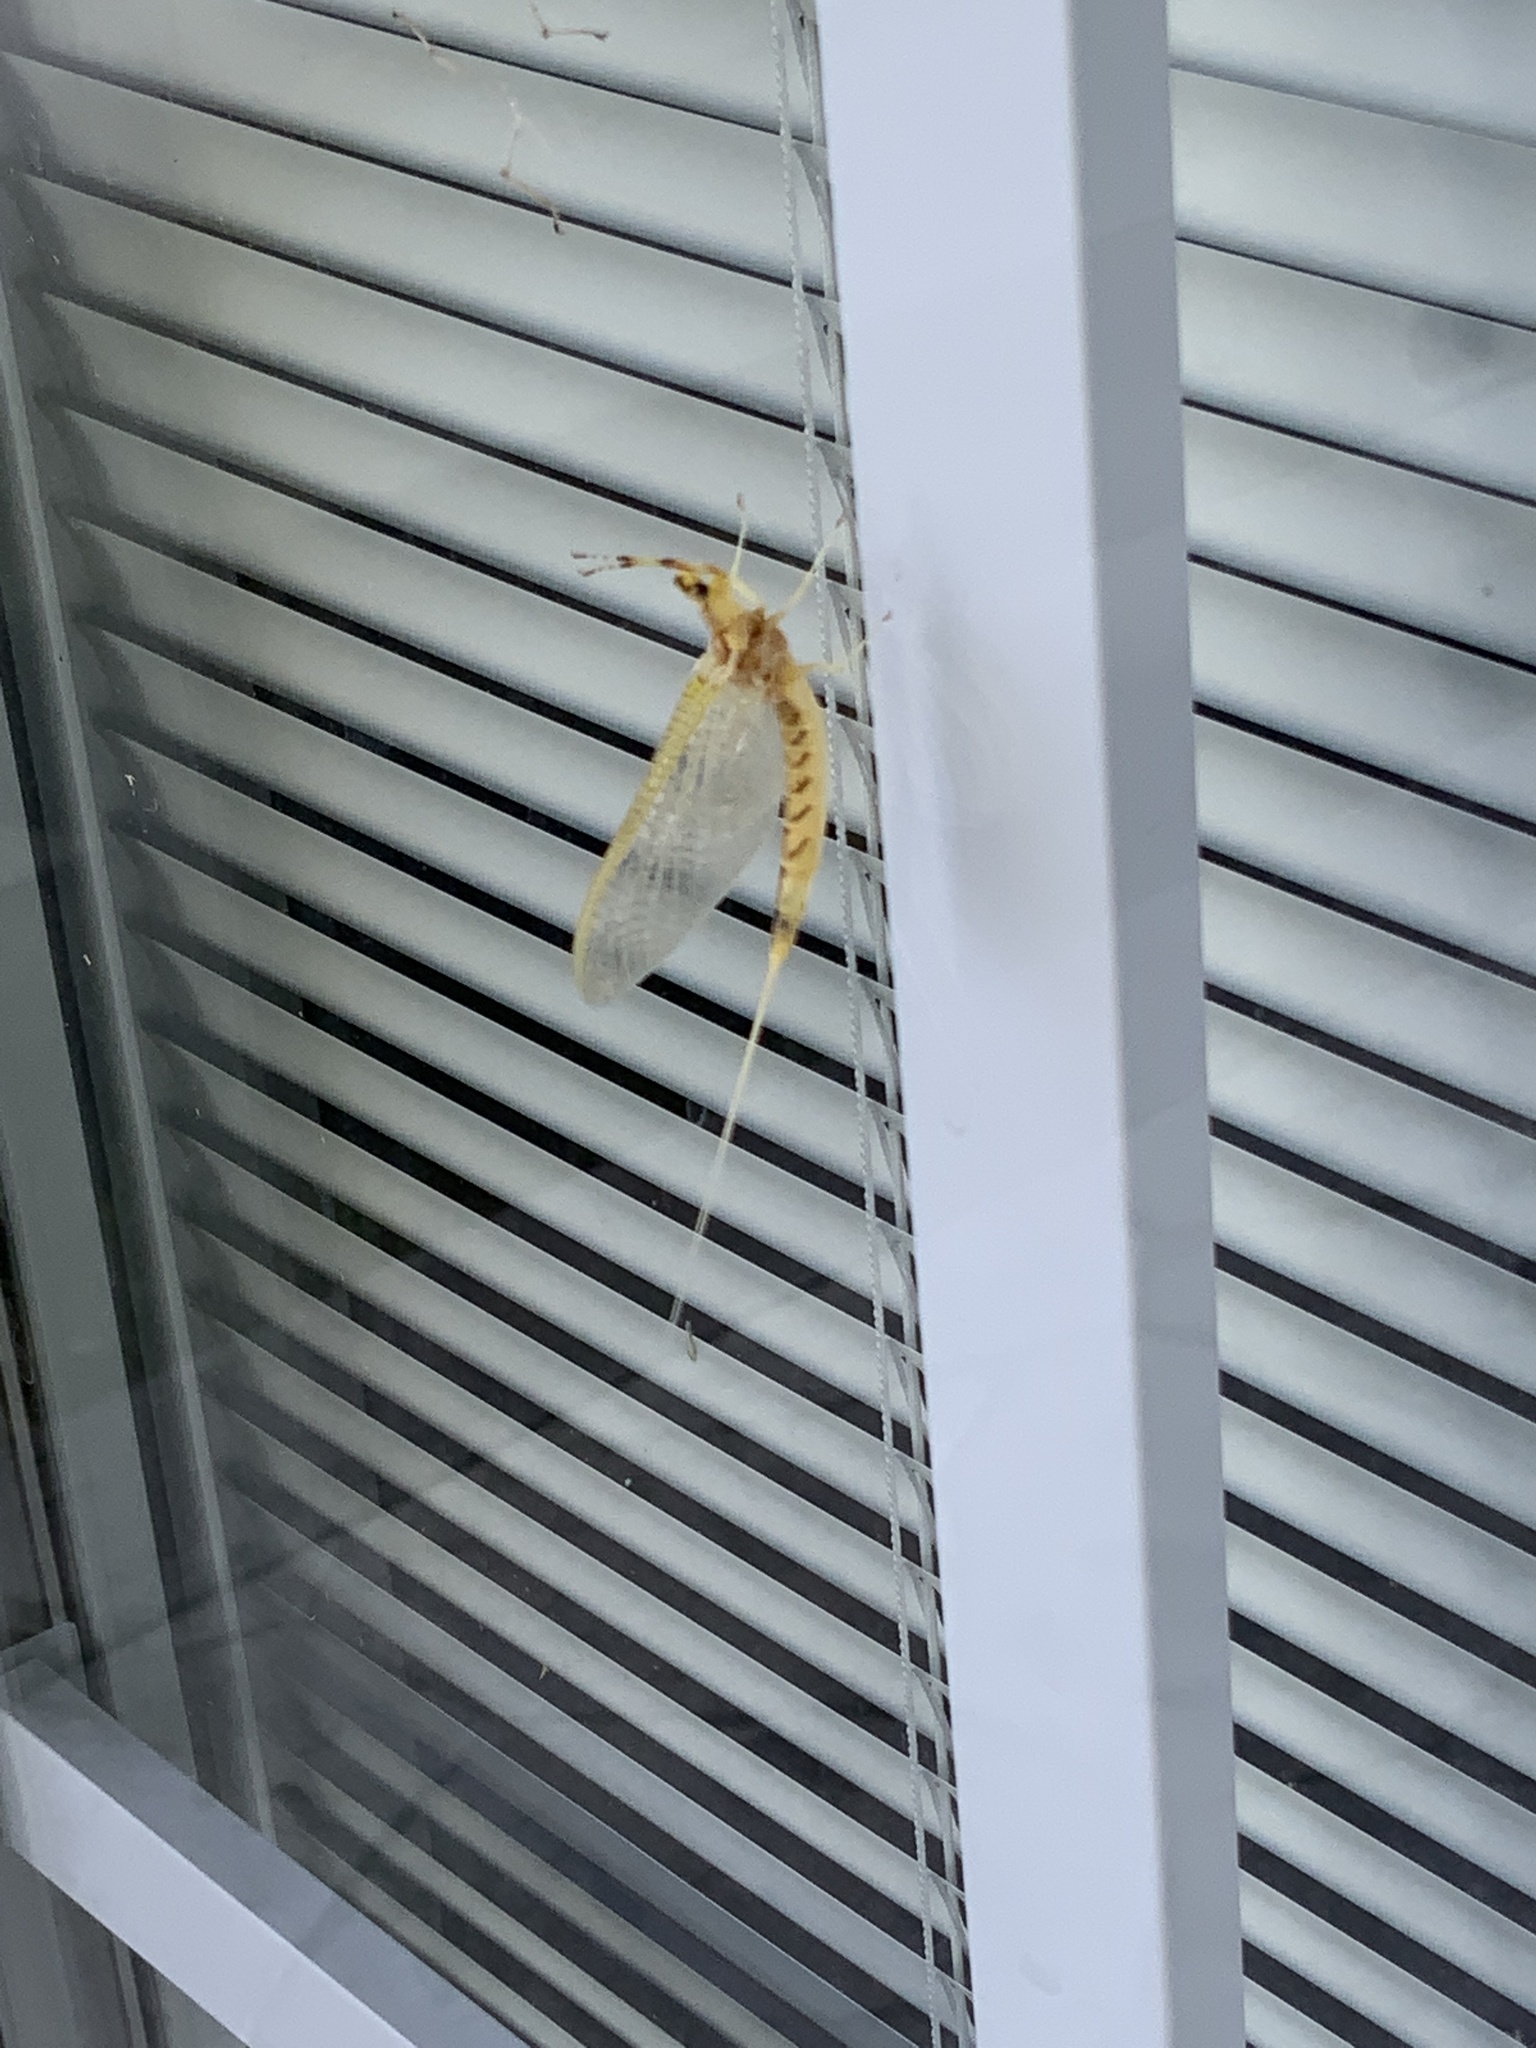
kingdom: Animalia
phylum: Arthropoda
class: Insecta
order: Ephemeroptera
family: Ephemeridae
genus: Hexagenia
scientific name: Hexagenia limbata
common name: Giant mayfly
